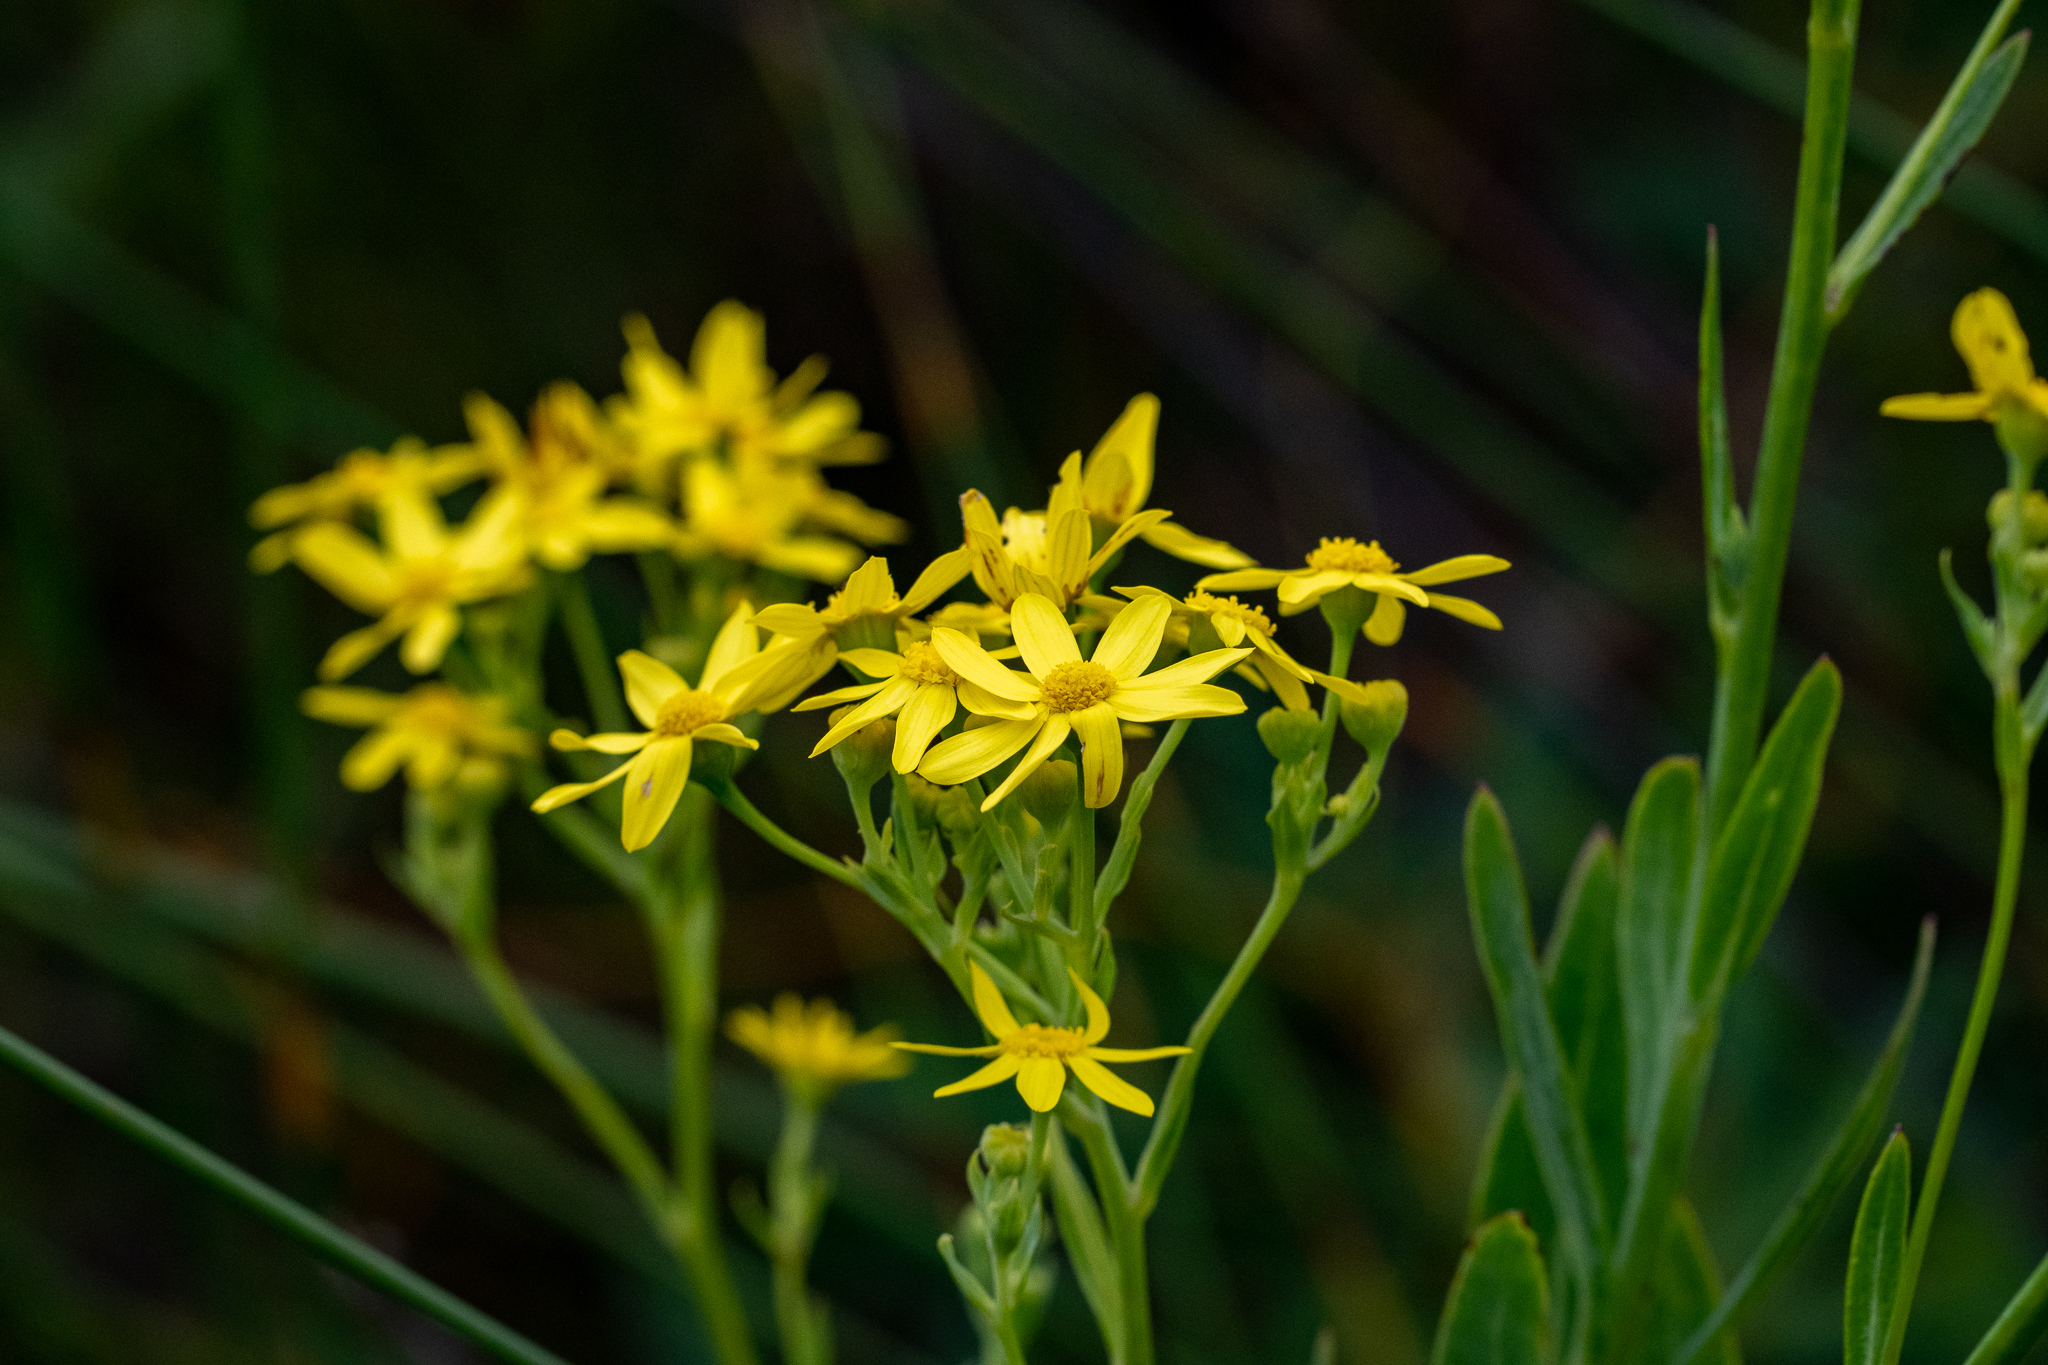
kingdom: Plantae
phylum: Tracheophyta
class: Magnoliopsida
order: Asterales
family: Asteraceae
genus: Othonna
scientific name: Othonna quinquedentata
